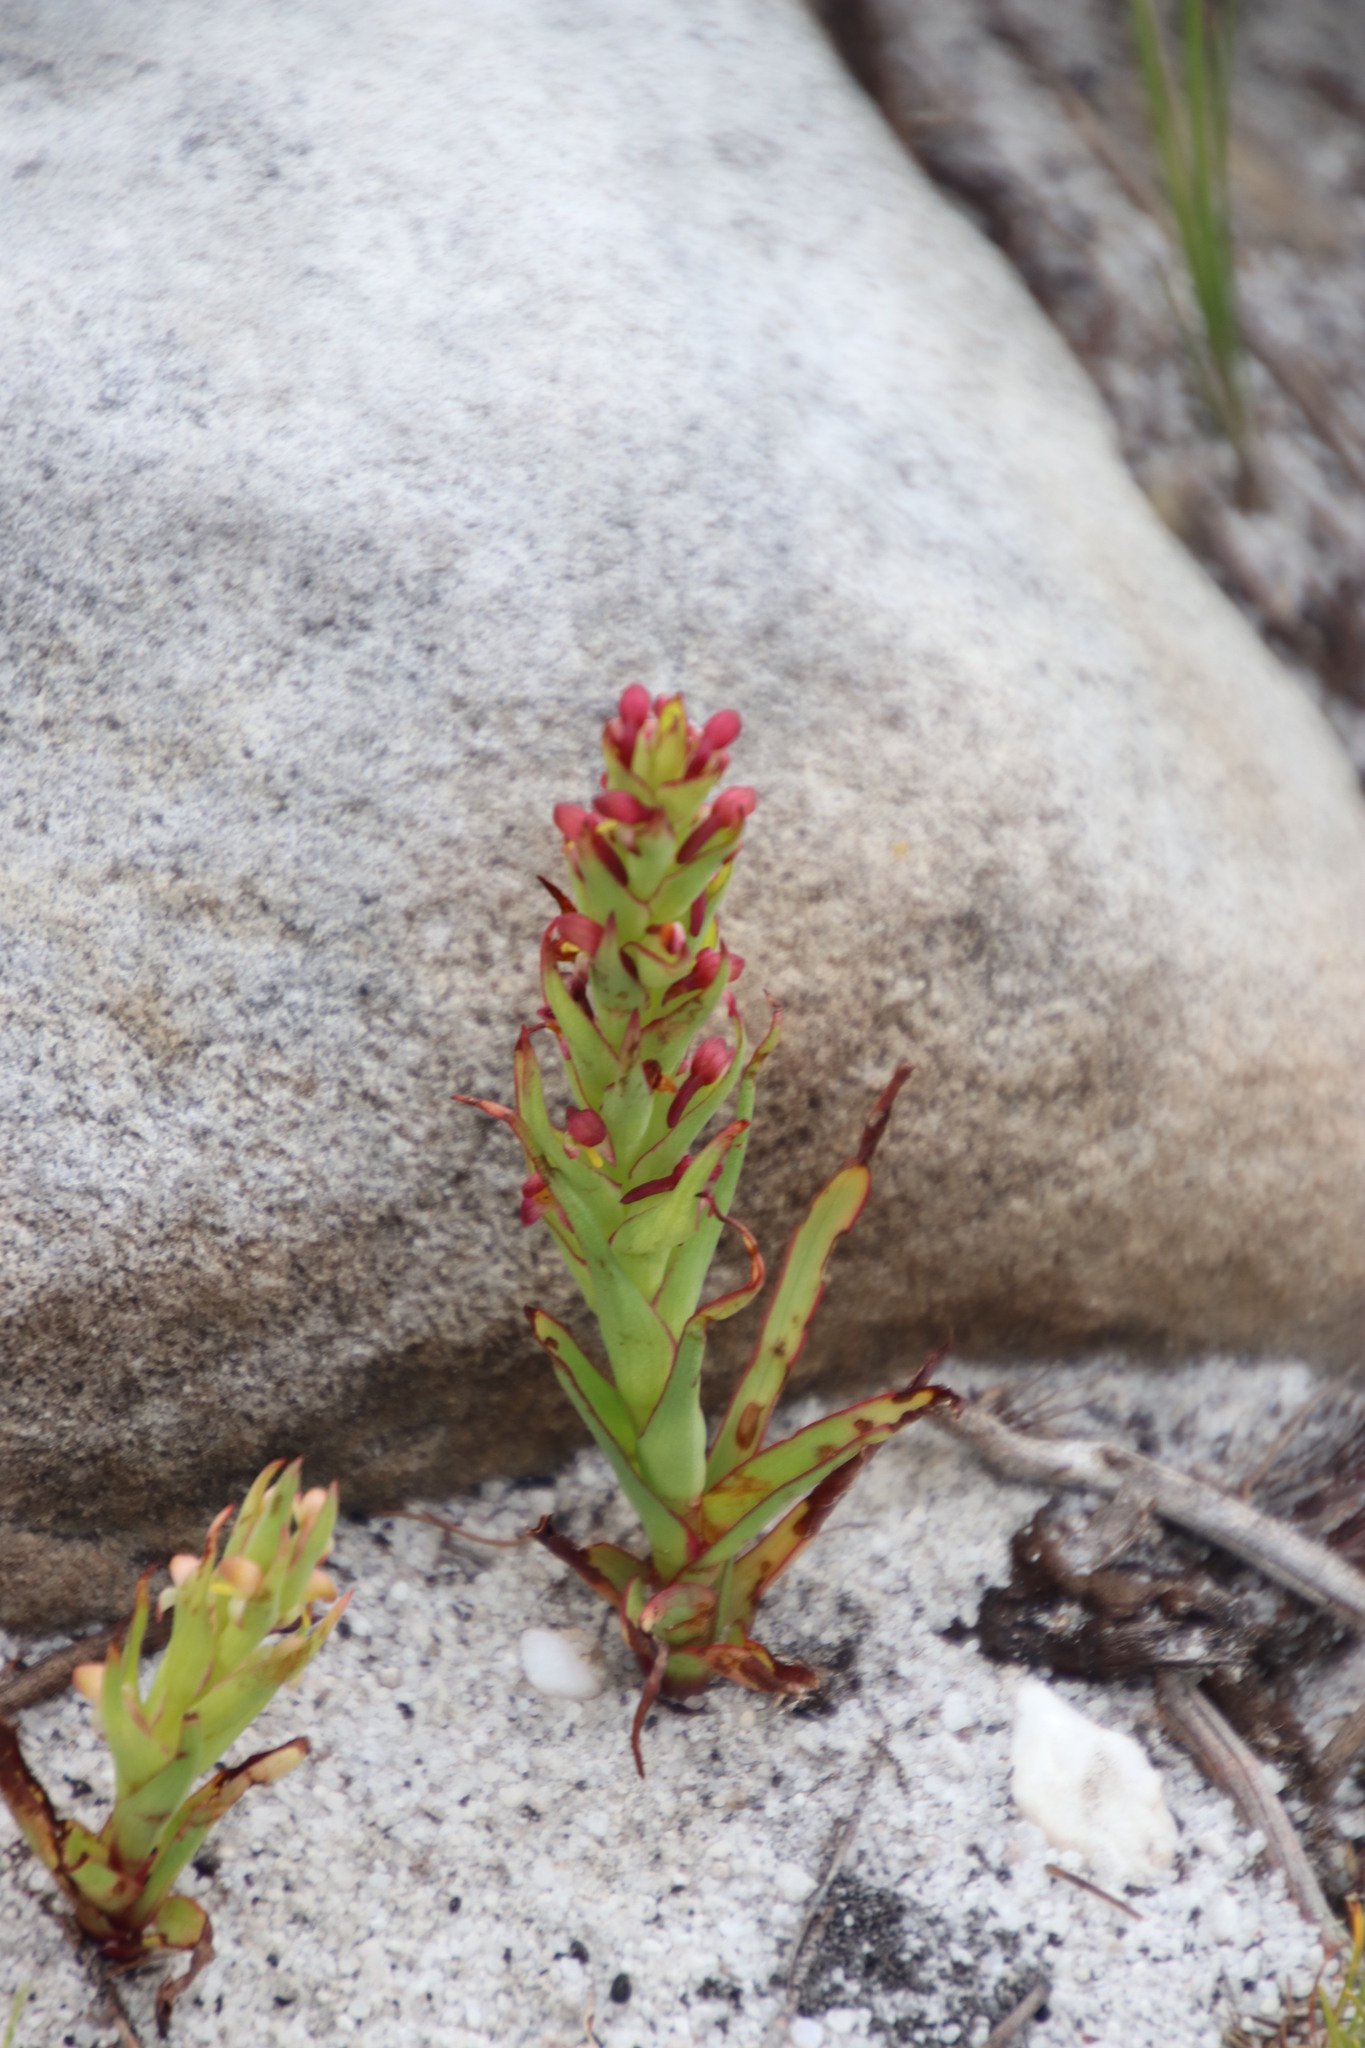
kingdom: Plantae
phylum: Tracheophyta
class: Liliopsida
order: Asparagales
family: Orchidaceae
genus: Disa
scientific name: Disa bracteata
